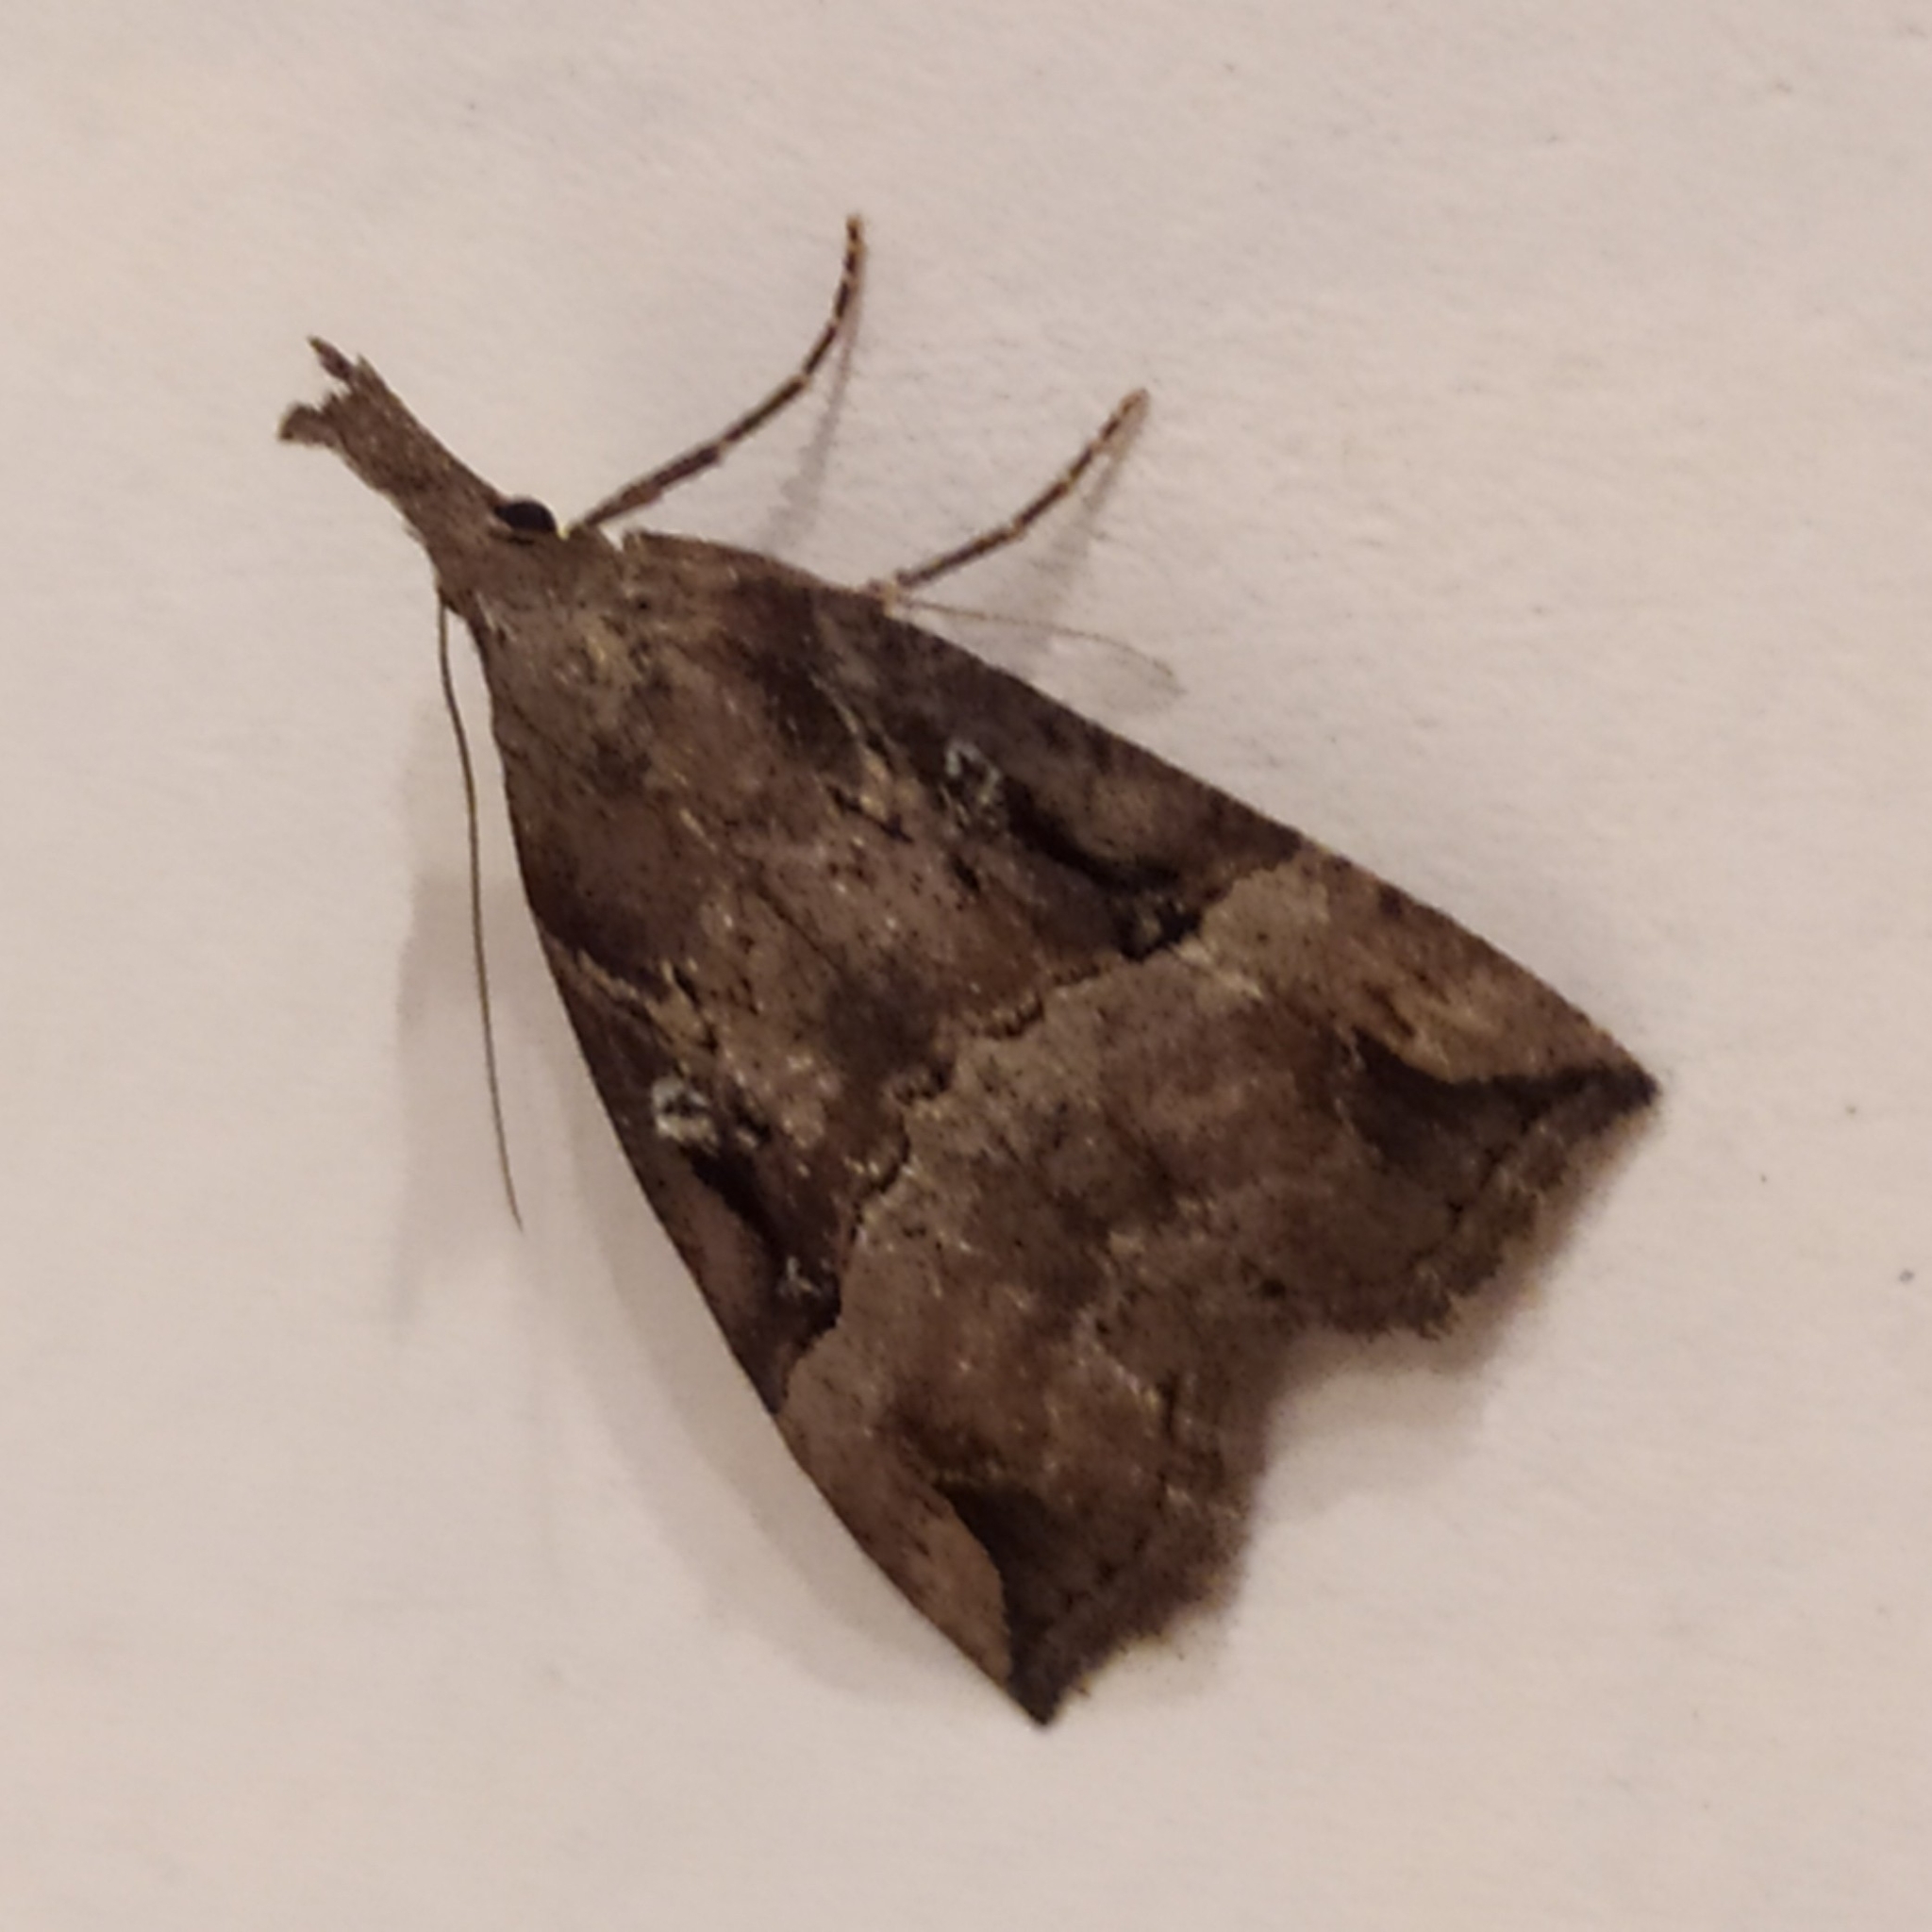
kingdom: Animalia
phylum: Arthropoda
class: Insecta
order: Lepidoptera
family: Erebidae
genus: Hypena
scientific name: Hypena rostralis
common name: Buttoned snout
